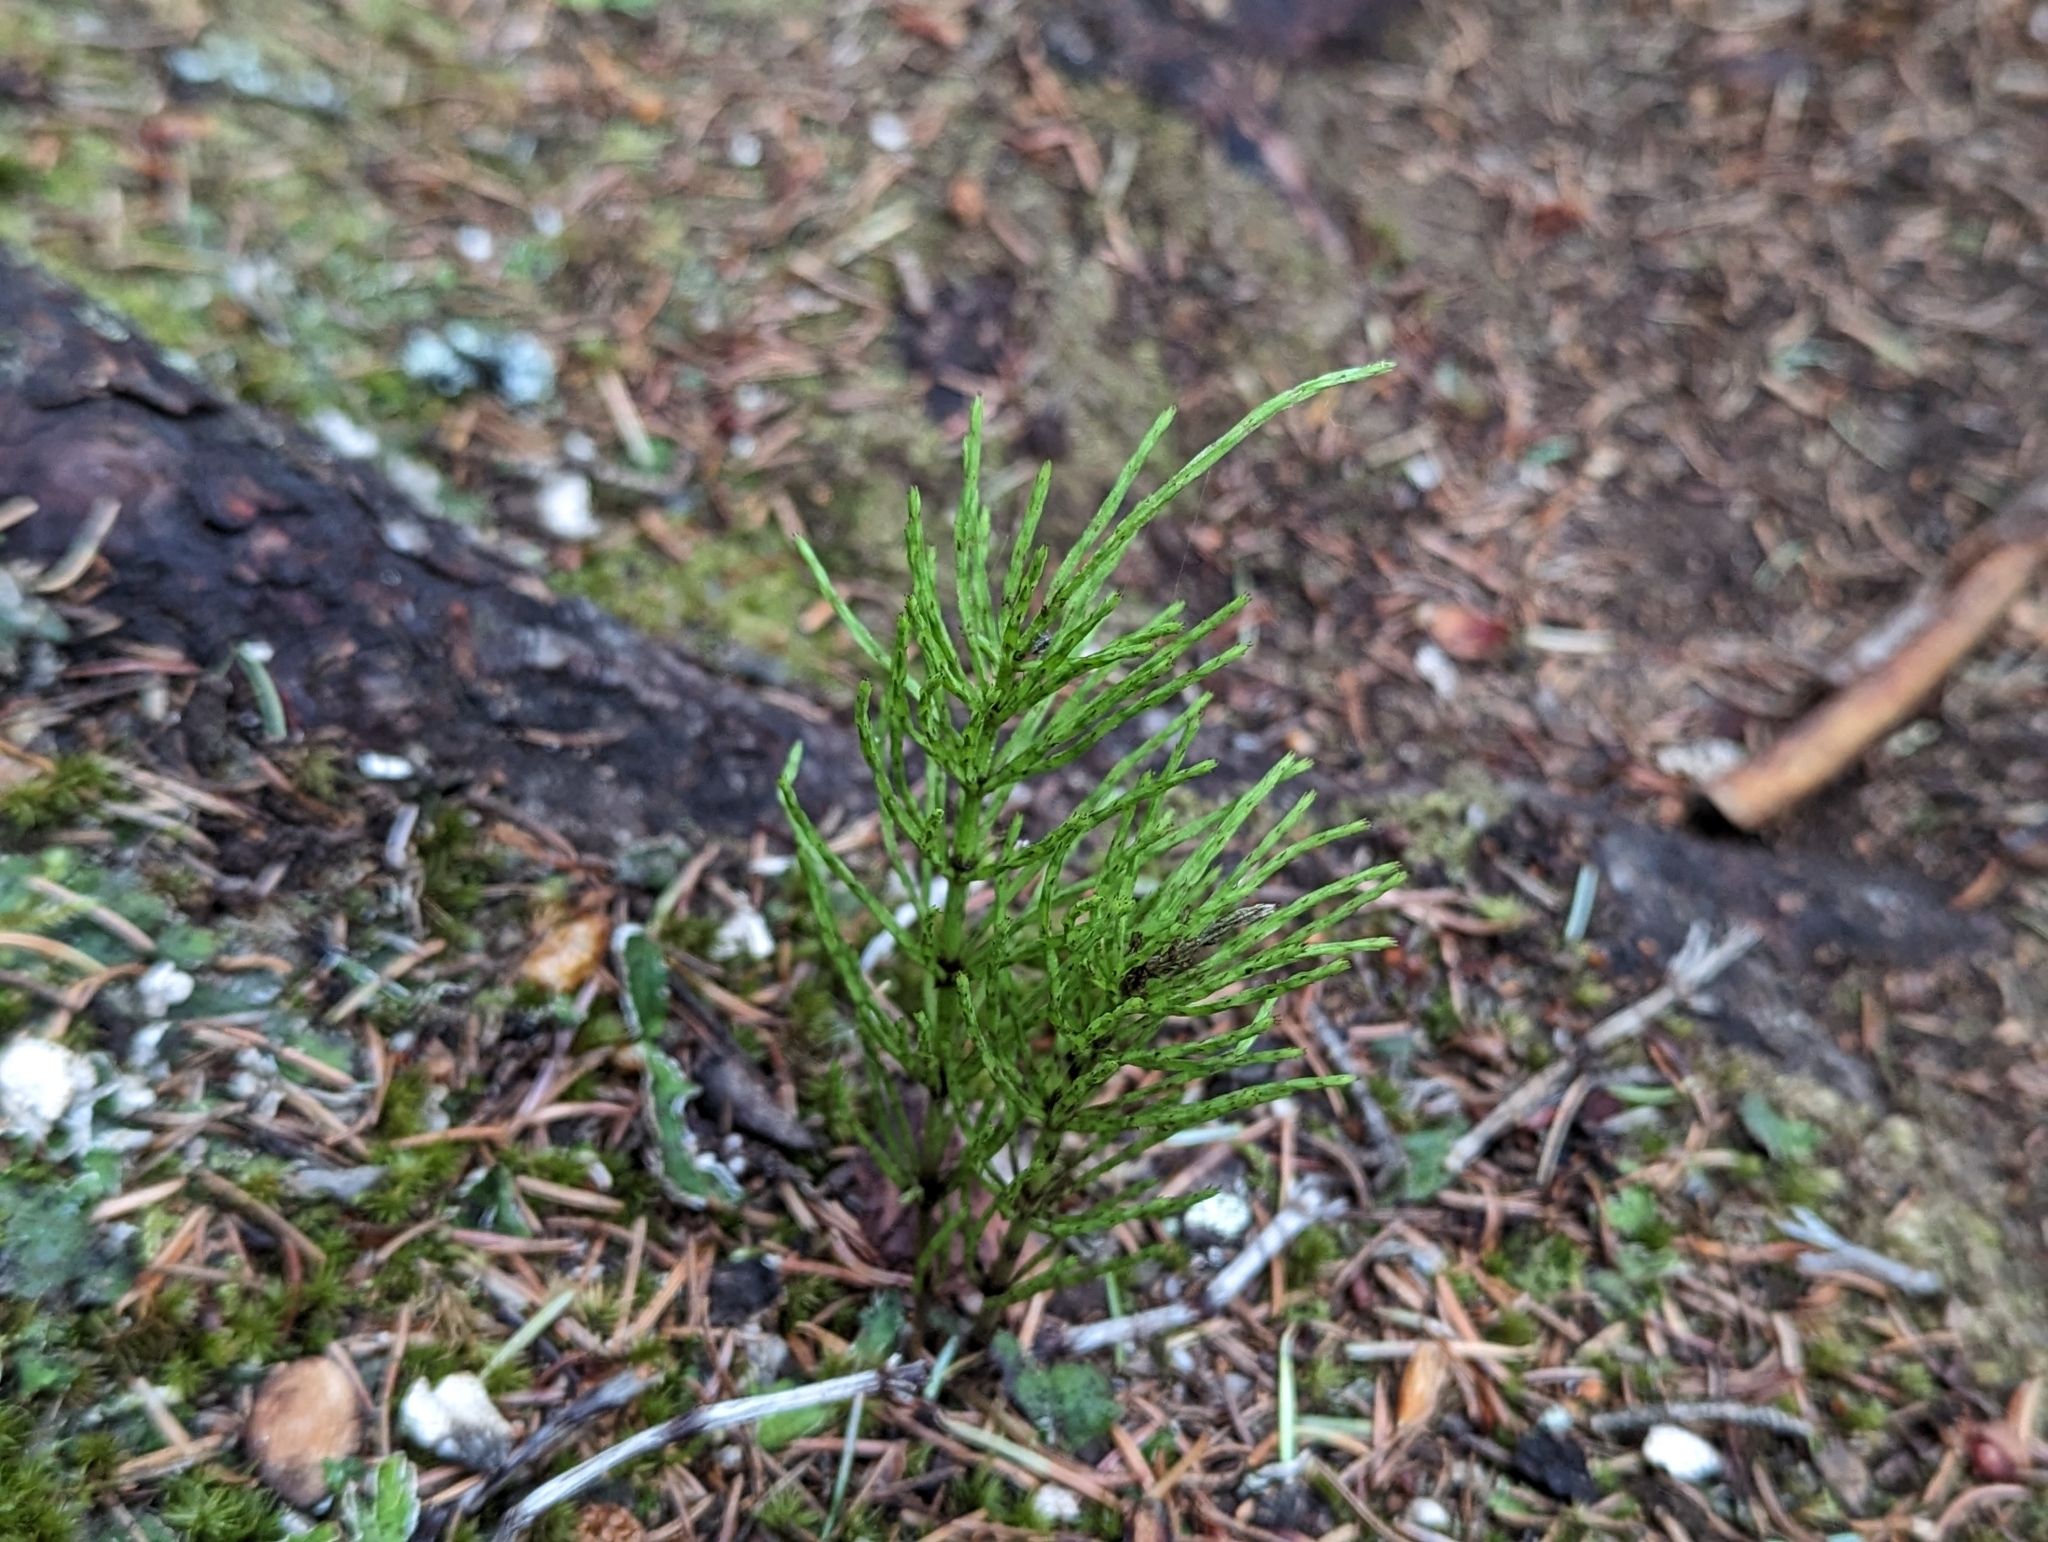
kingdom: Plantae
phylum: Tracheophyta
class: Polypodiopsida
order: Equisetales
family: Equisetaceae
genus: Equisetum
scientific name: Equisetum arvense
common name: Field horsetail
